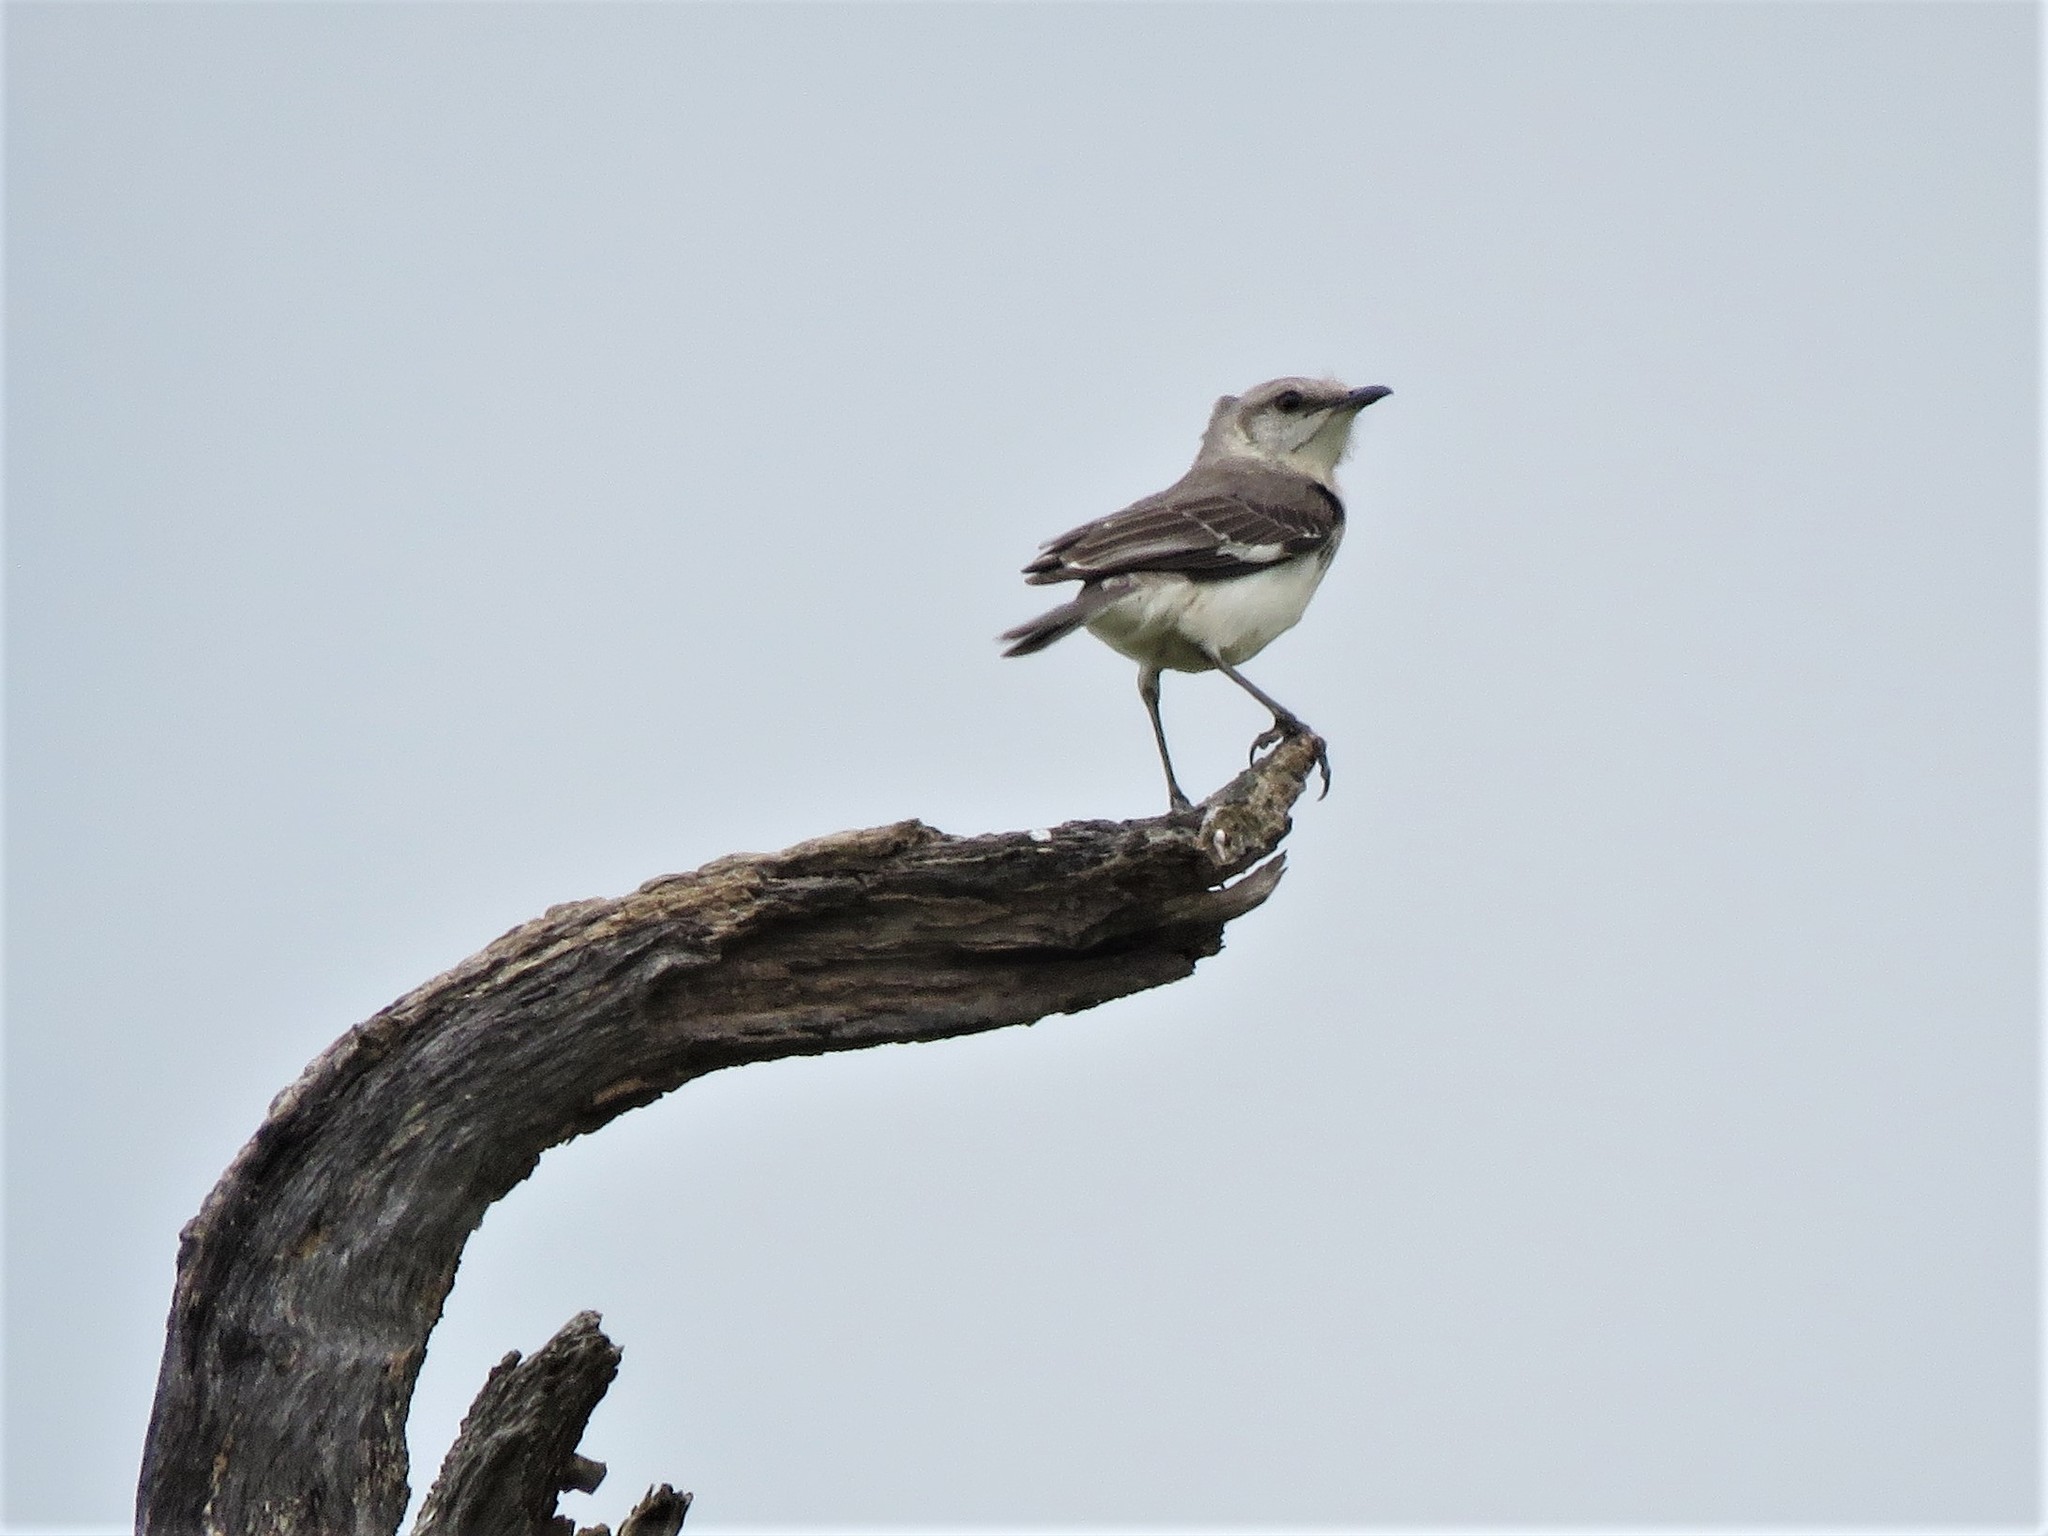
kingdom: Animalia
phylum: Chordata
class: Aves
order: Passeriformes
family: Mimidae
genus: Mimus
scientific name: Mimus polyglottos
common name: Northern mockingbird
